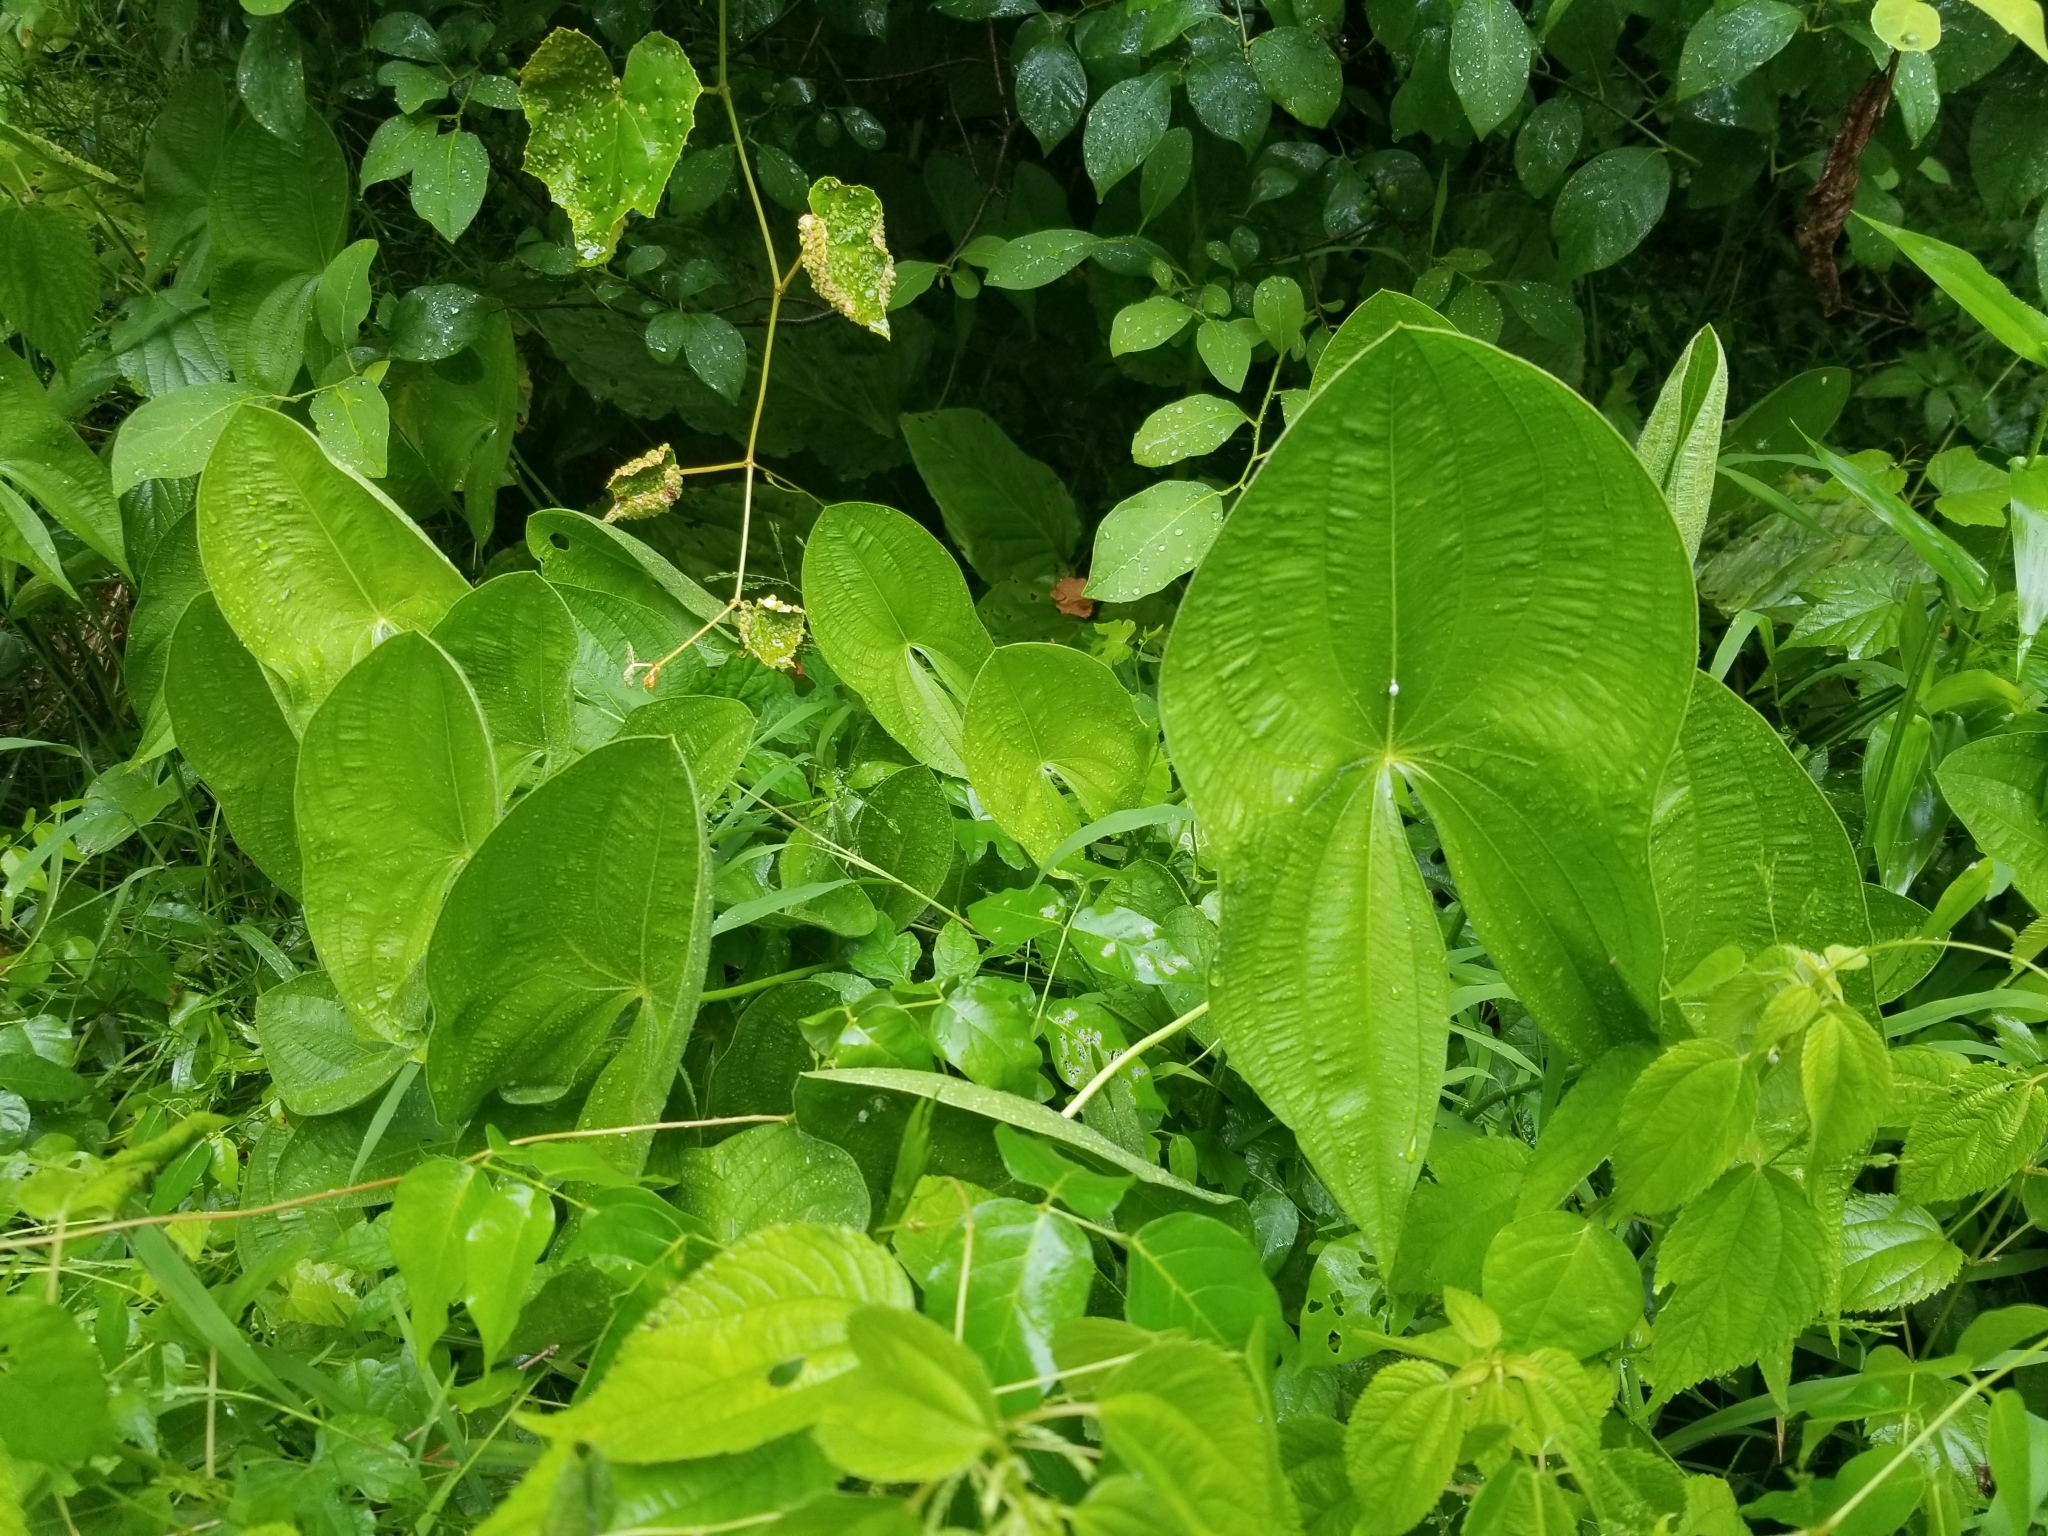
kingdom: Plantae
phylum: Tracheophyta
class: Liliopsida
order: Alismatales
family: Alismataceae
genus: Sagittaria
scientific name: Sagittaria latifolia
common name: Duck-potato
